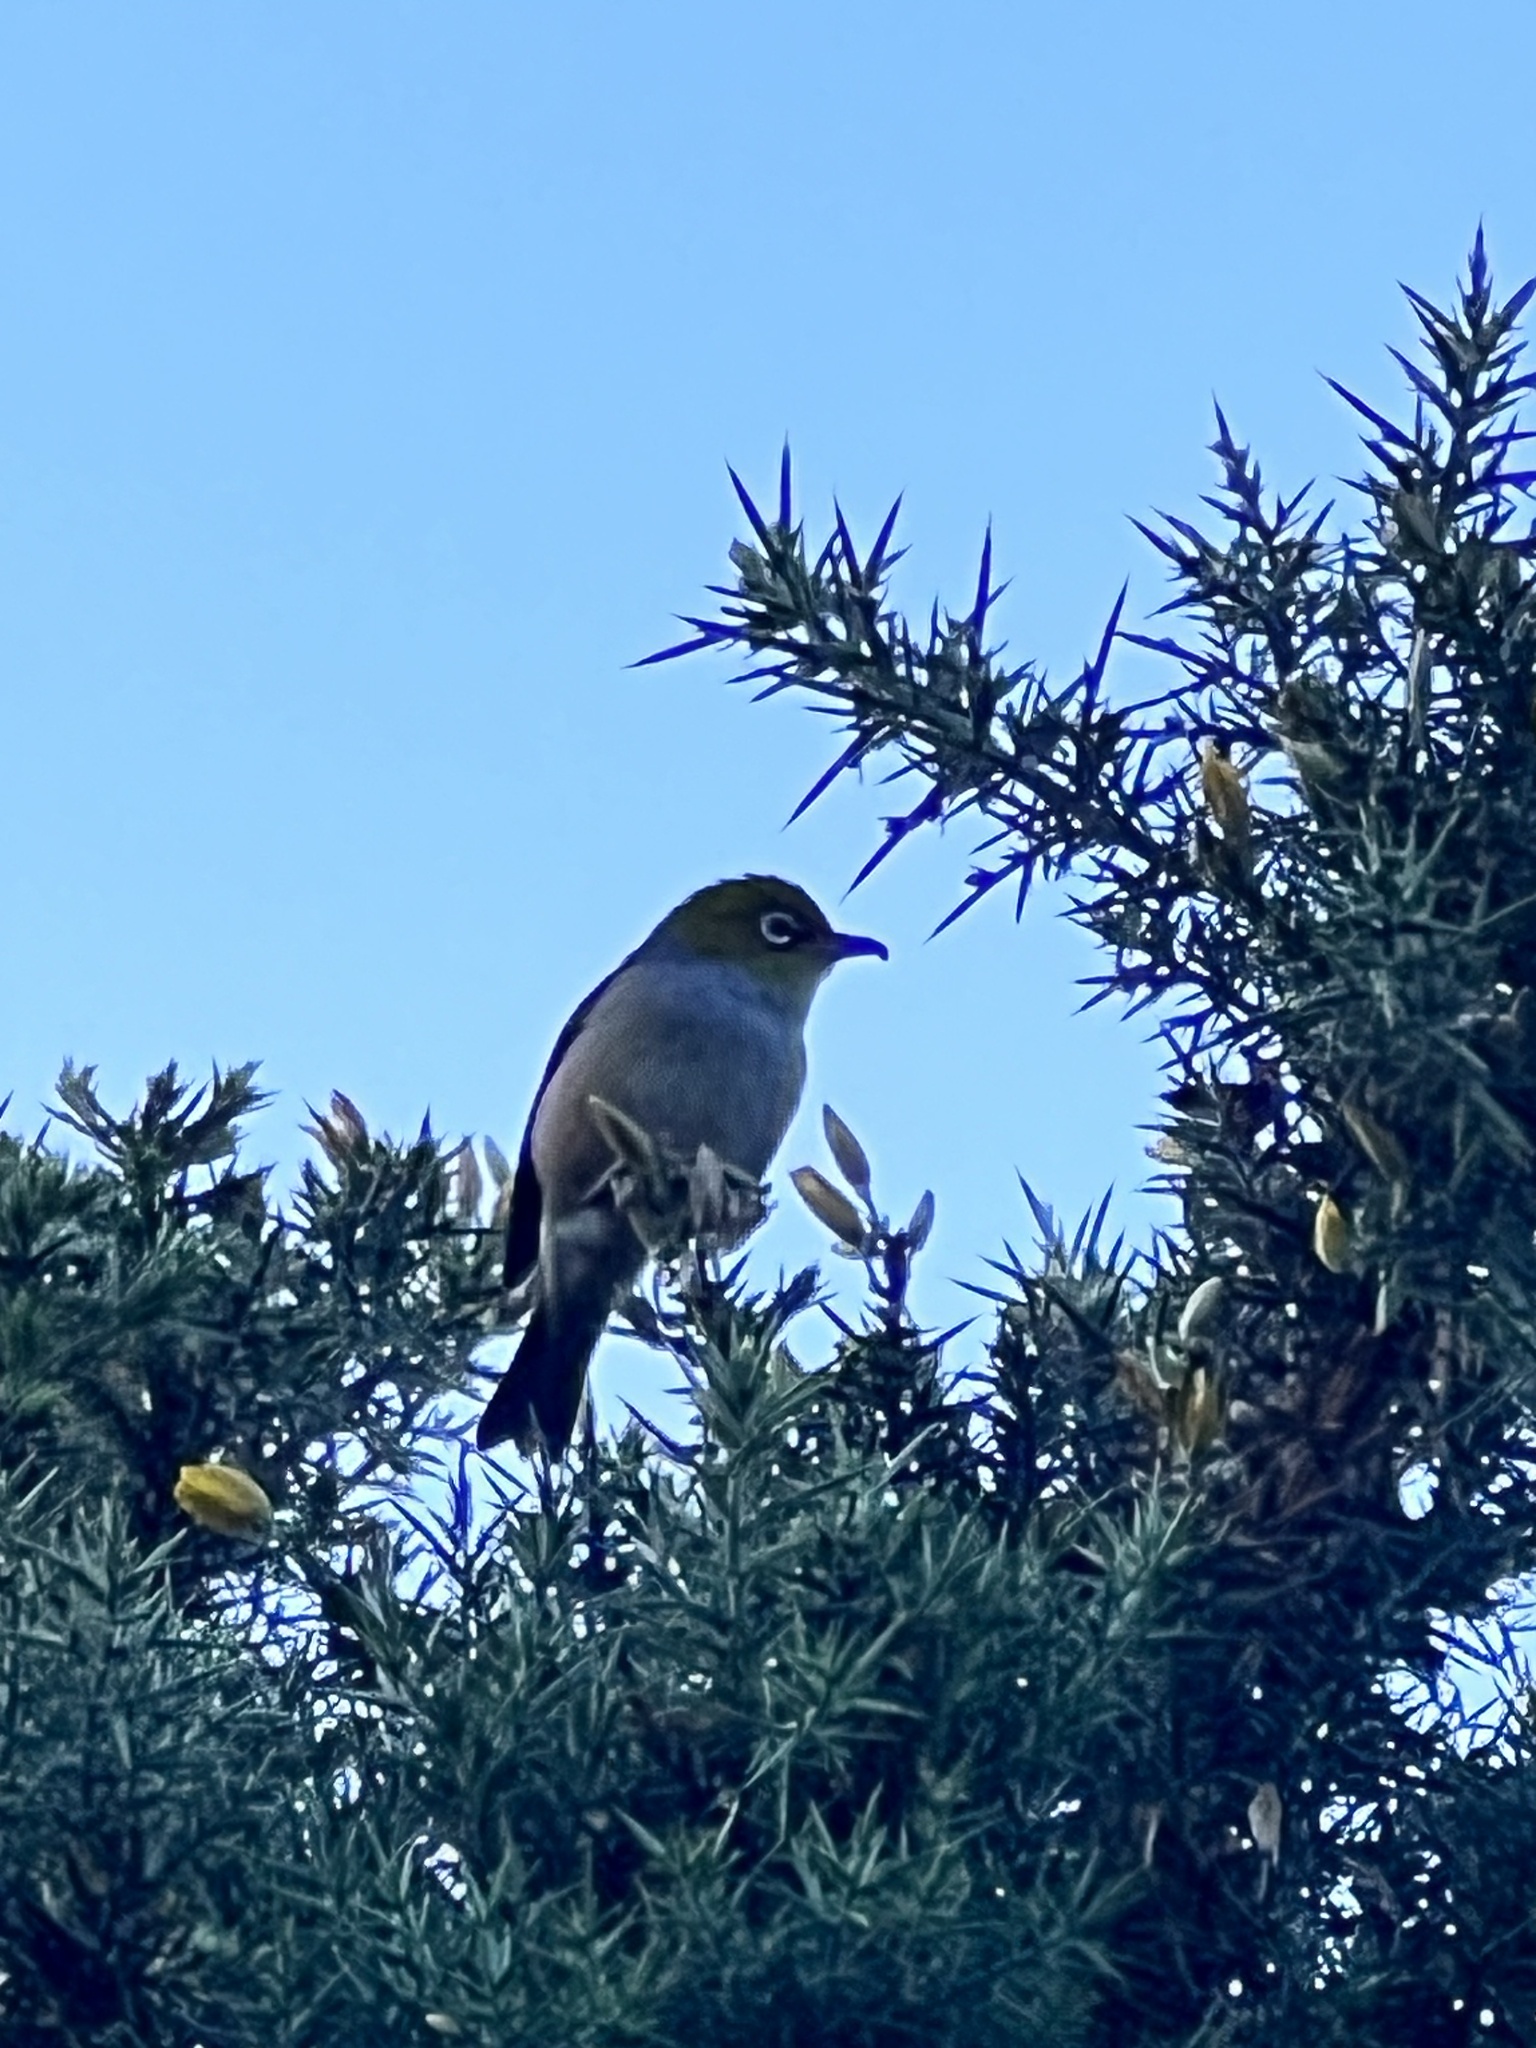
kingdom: Animalia
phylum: Chordata
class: Aves
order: Passeriformes
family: Zosteropidae
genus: Zosterops
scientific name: Zosterops lateralis
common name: Silvereye
